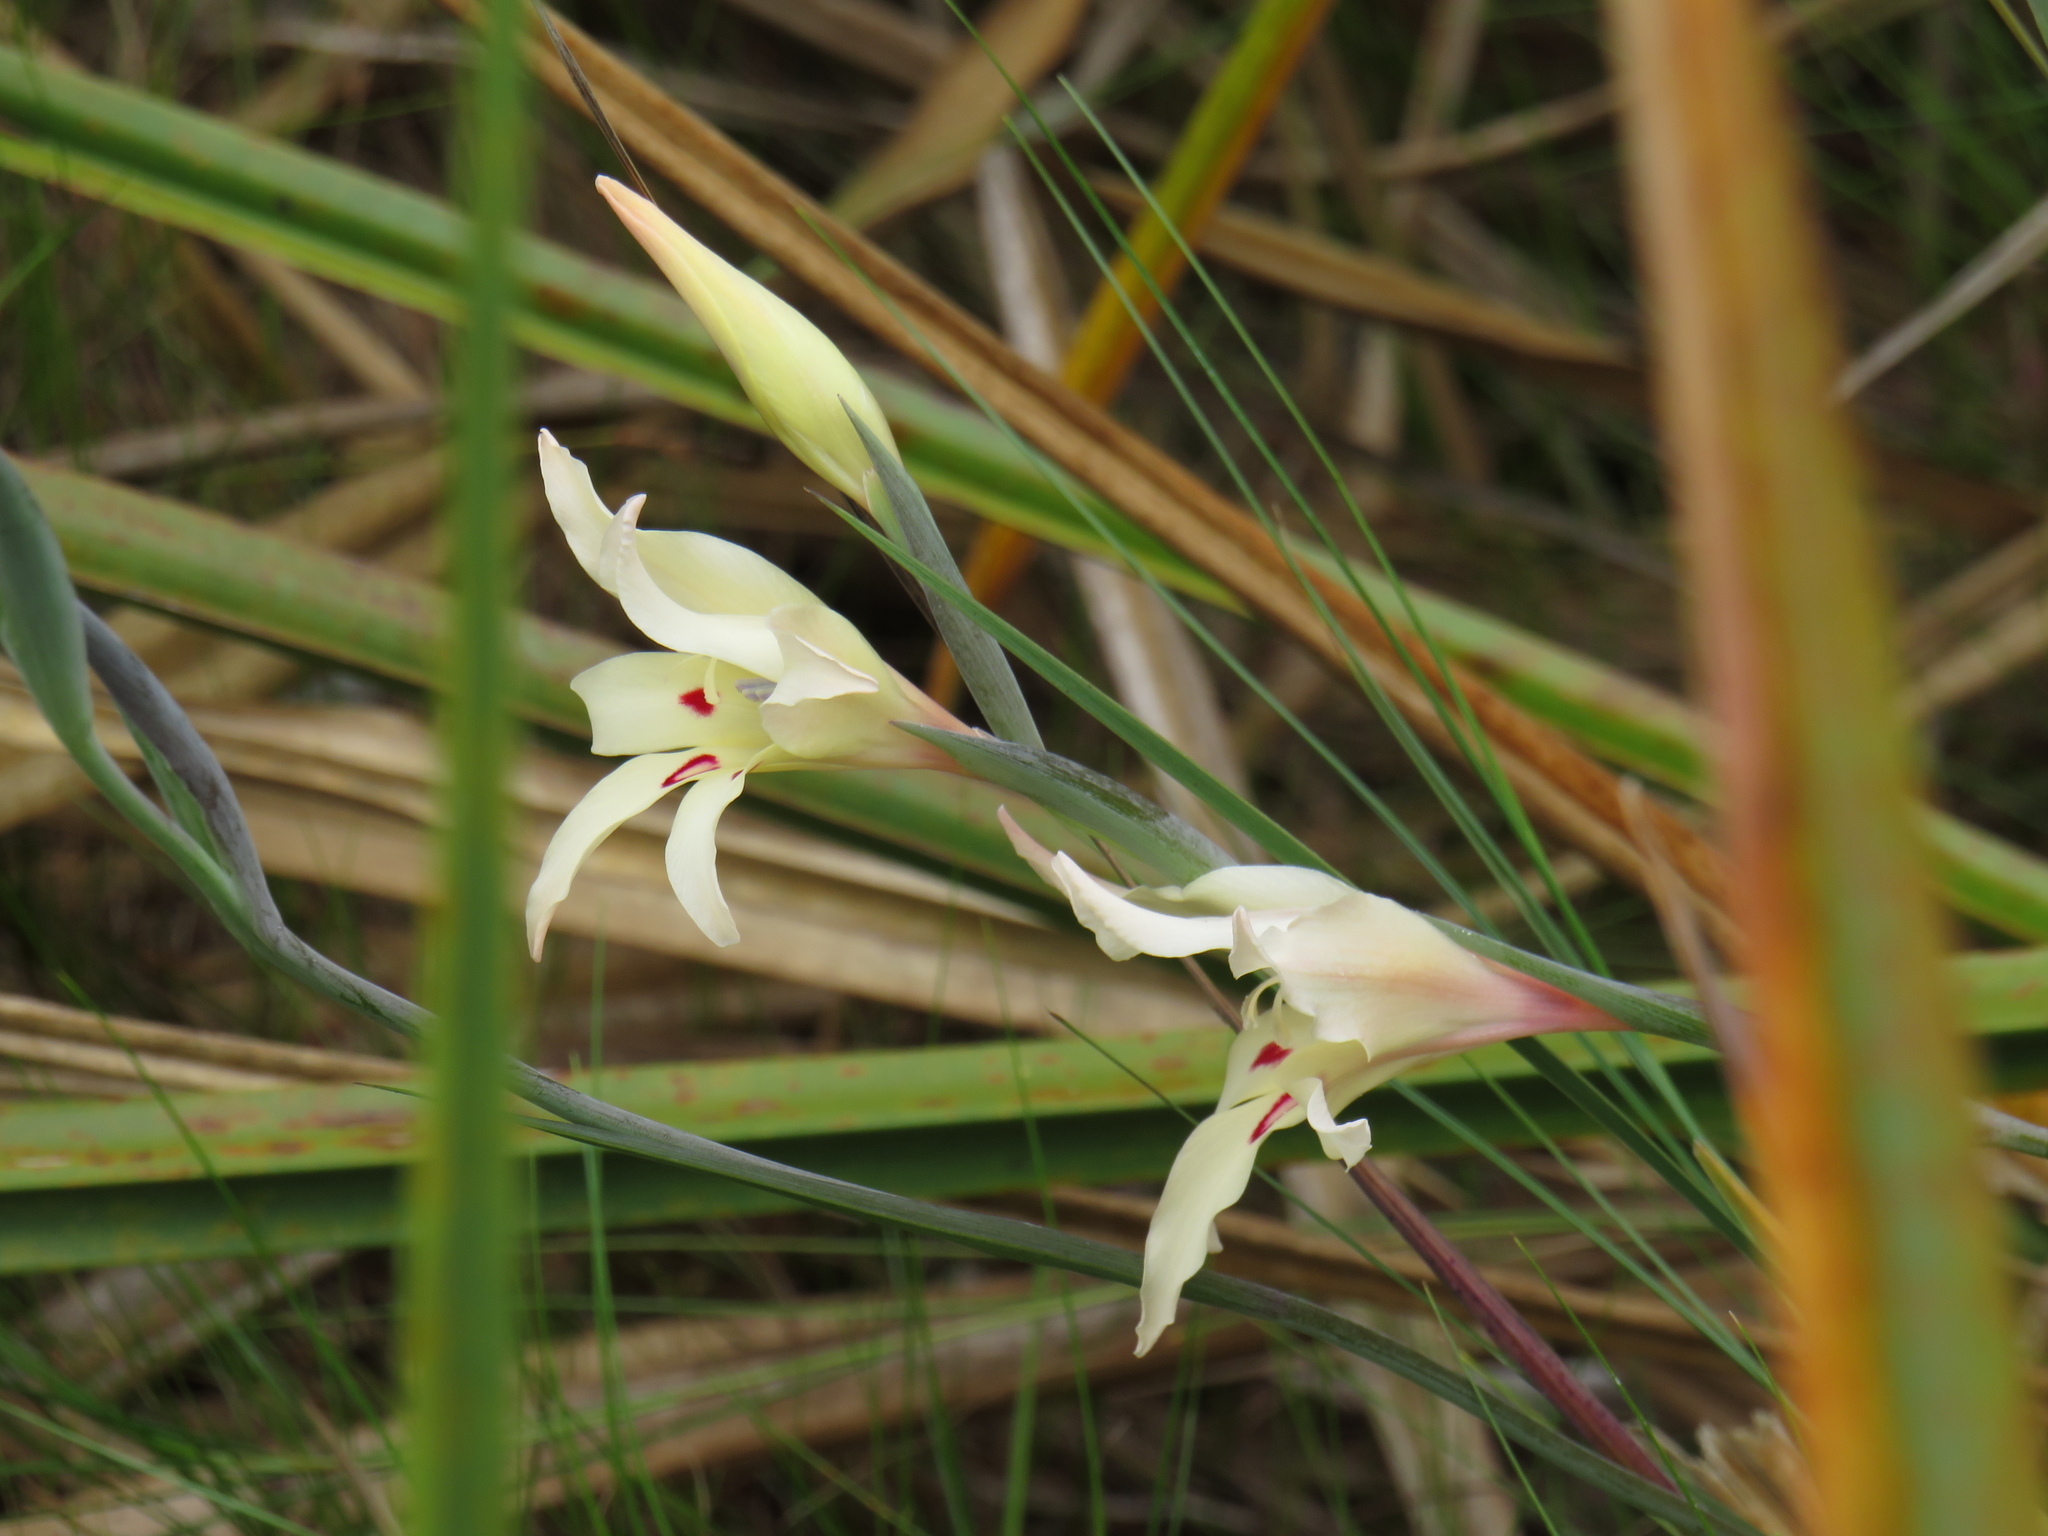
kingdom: Plantae
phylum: Tracheophyta
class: Liliopsida
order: Asparagales
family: Iridaceae
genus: Gladiolus
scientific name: Gladiolus carneus
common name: Painted-lady
